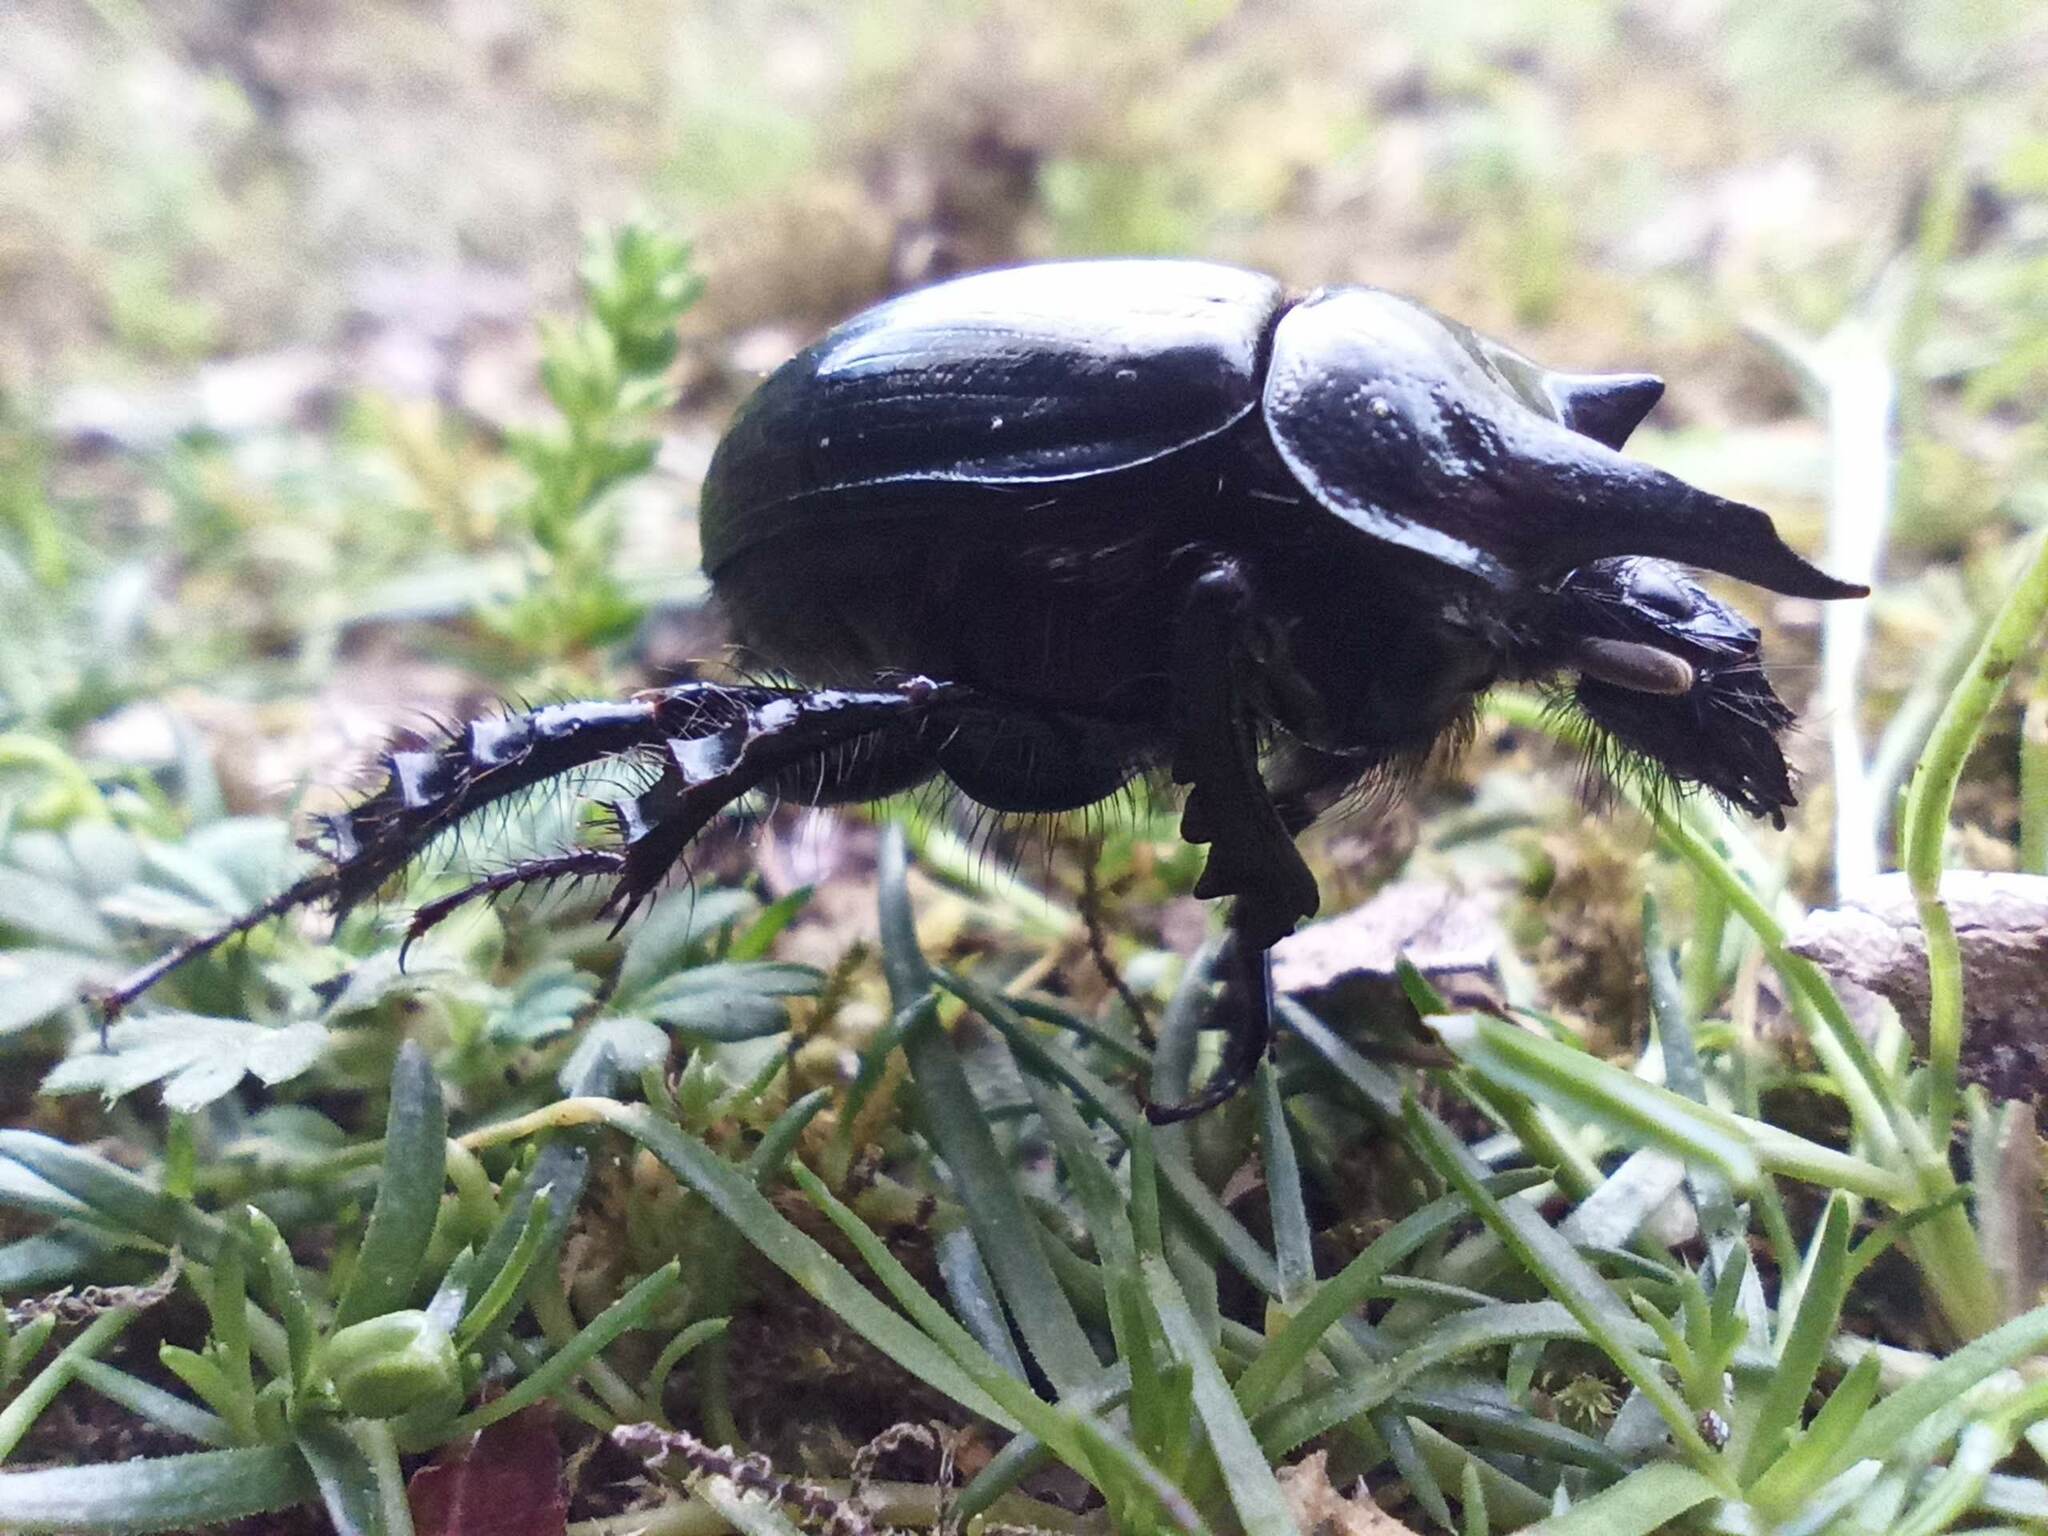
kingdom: Animalia
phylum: Arthropoda
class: Insecta
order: Coleoptera
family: Geotrupidae
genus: Typhaeus
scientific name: Typhaeus typhoeus
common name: Minotaur beetle
